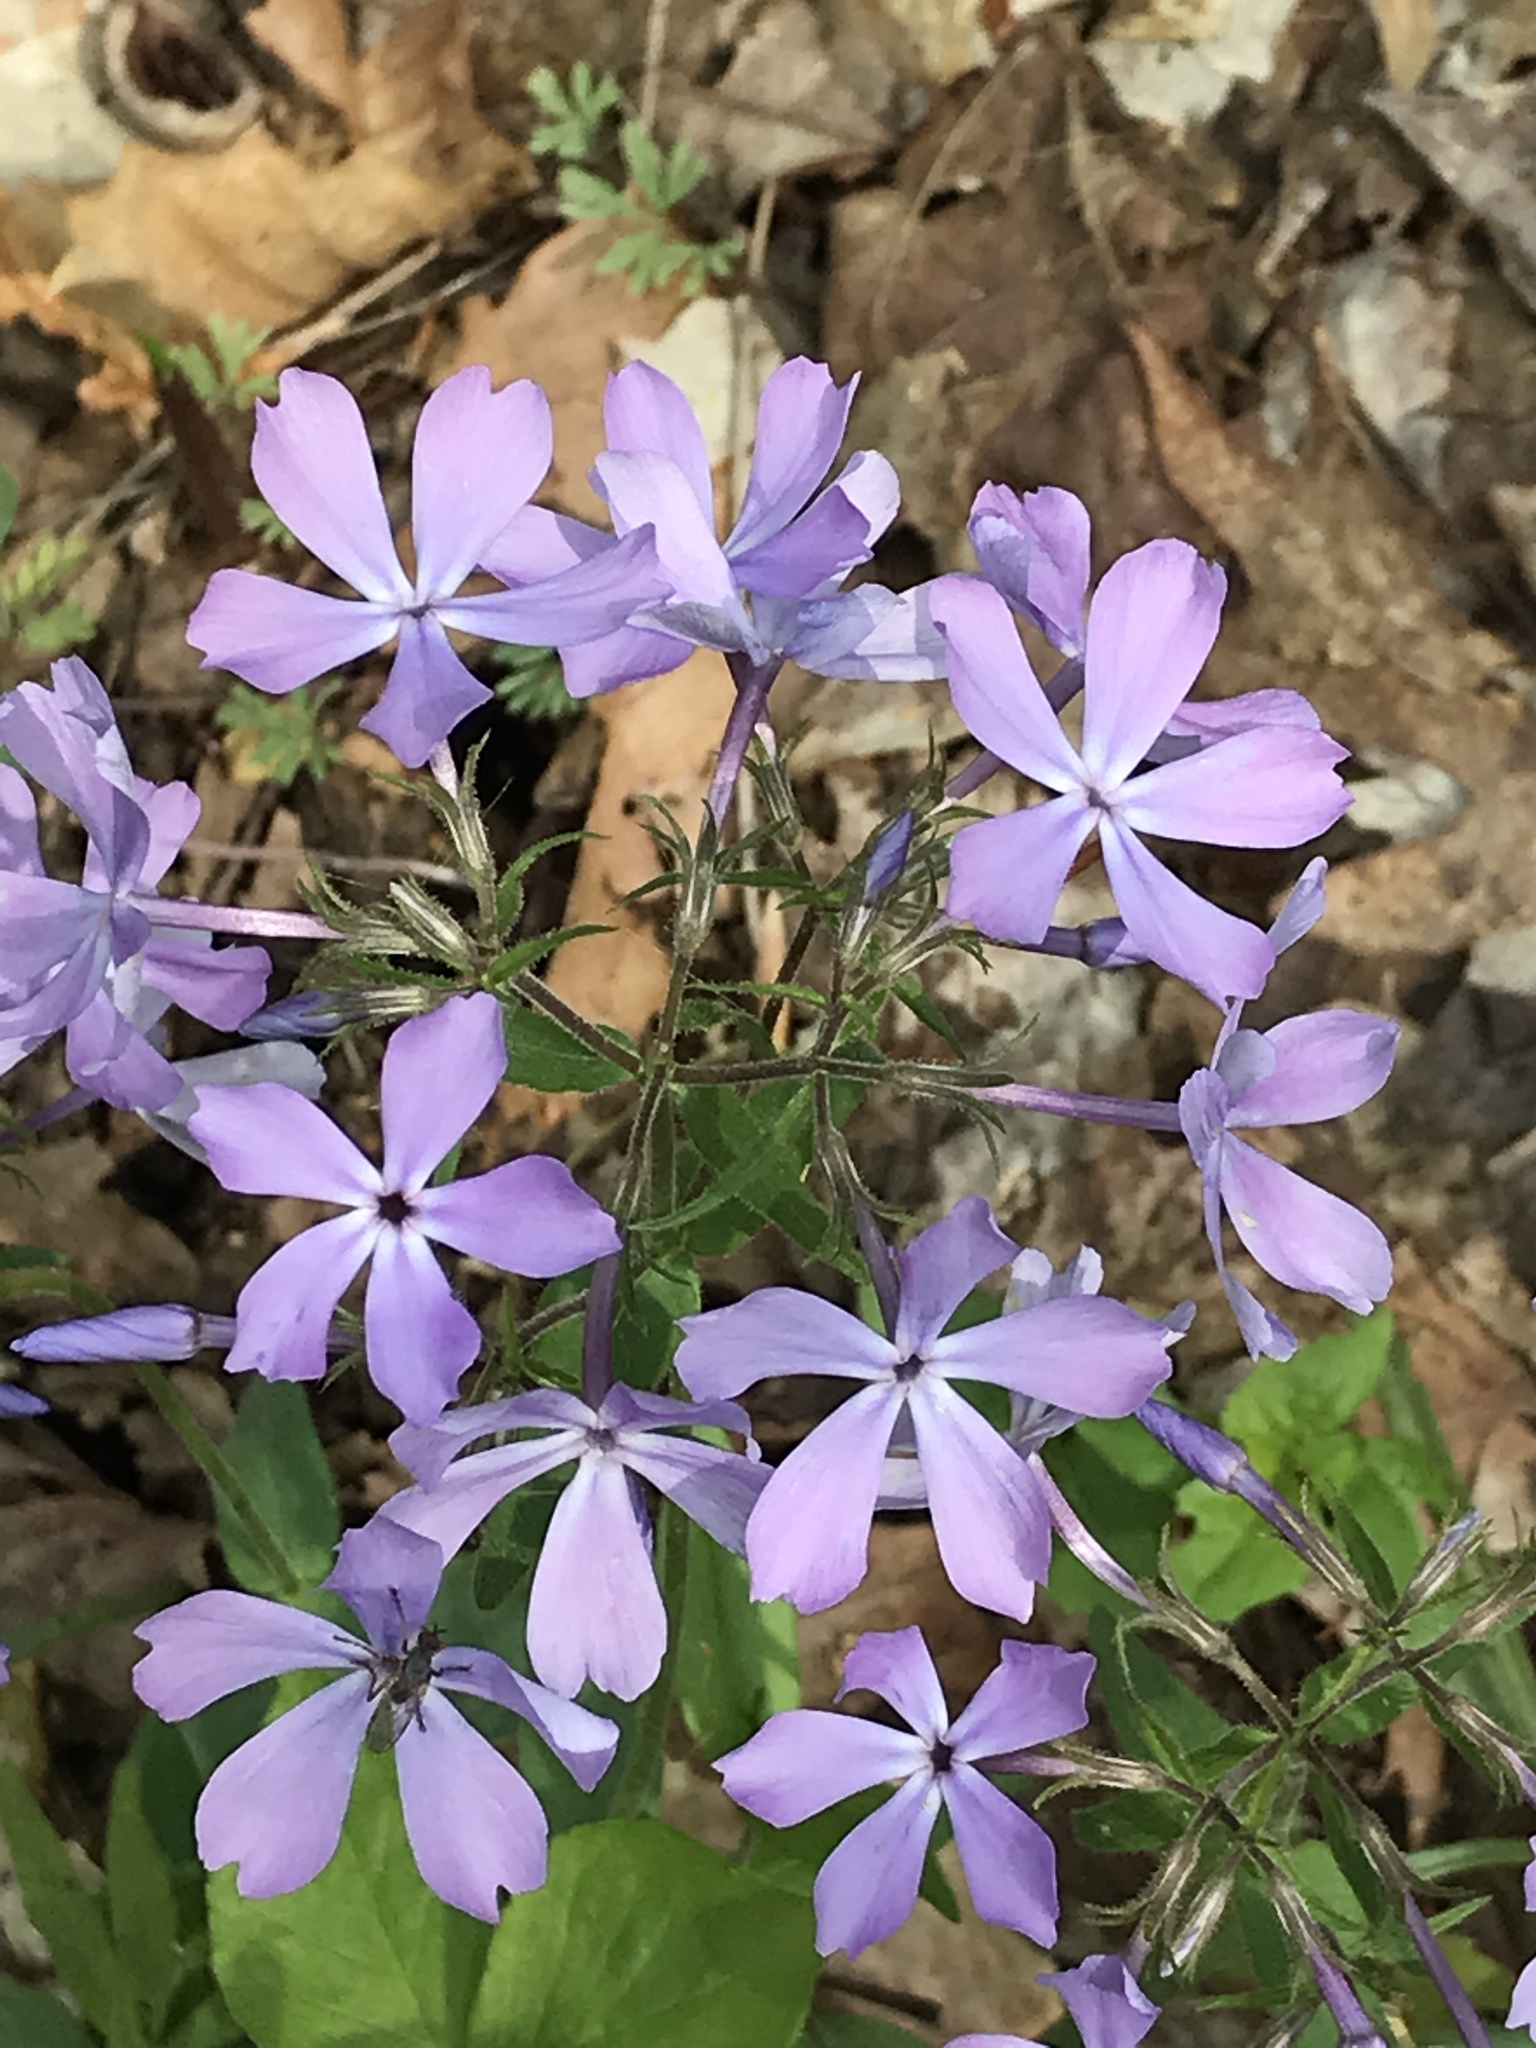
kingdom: Plantae
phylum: Tracheophyta
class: Magnoliopsida
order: Ericales
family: Polemoniaceae
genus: Phlox
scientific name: Phlox divaricata
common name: Blue phlox
